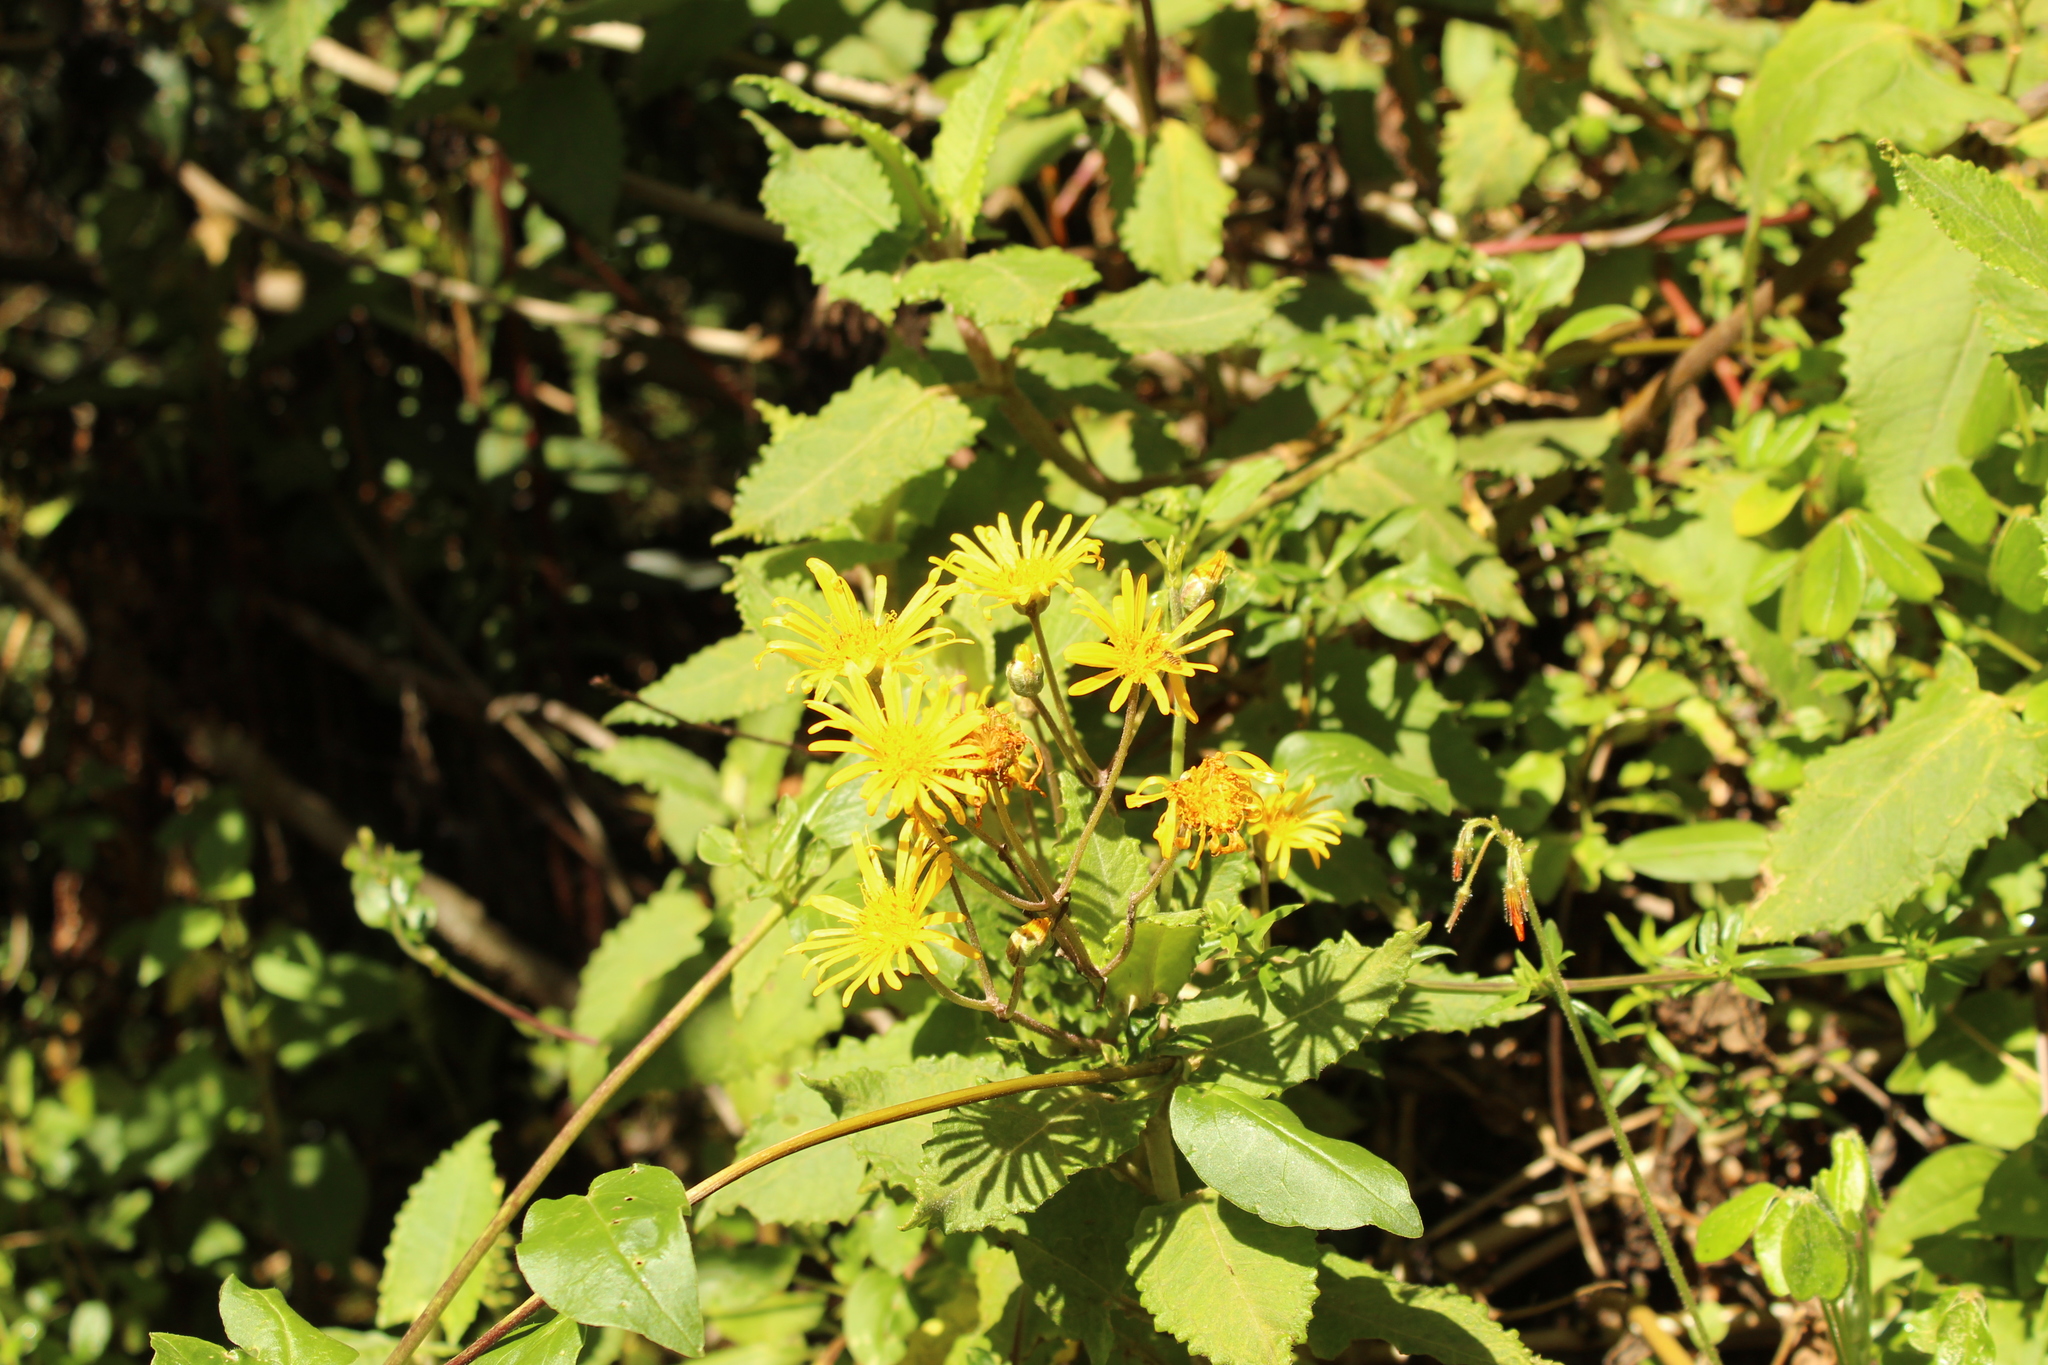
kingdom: Plantae
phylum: Tracheophyta
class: Magnoliopsida
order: Asterales
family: Asteraceae
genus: Munnozia
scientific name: Munnozia senecionidis
